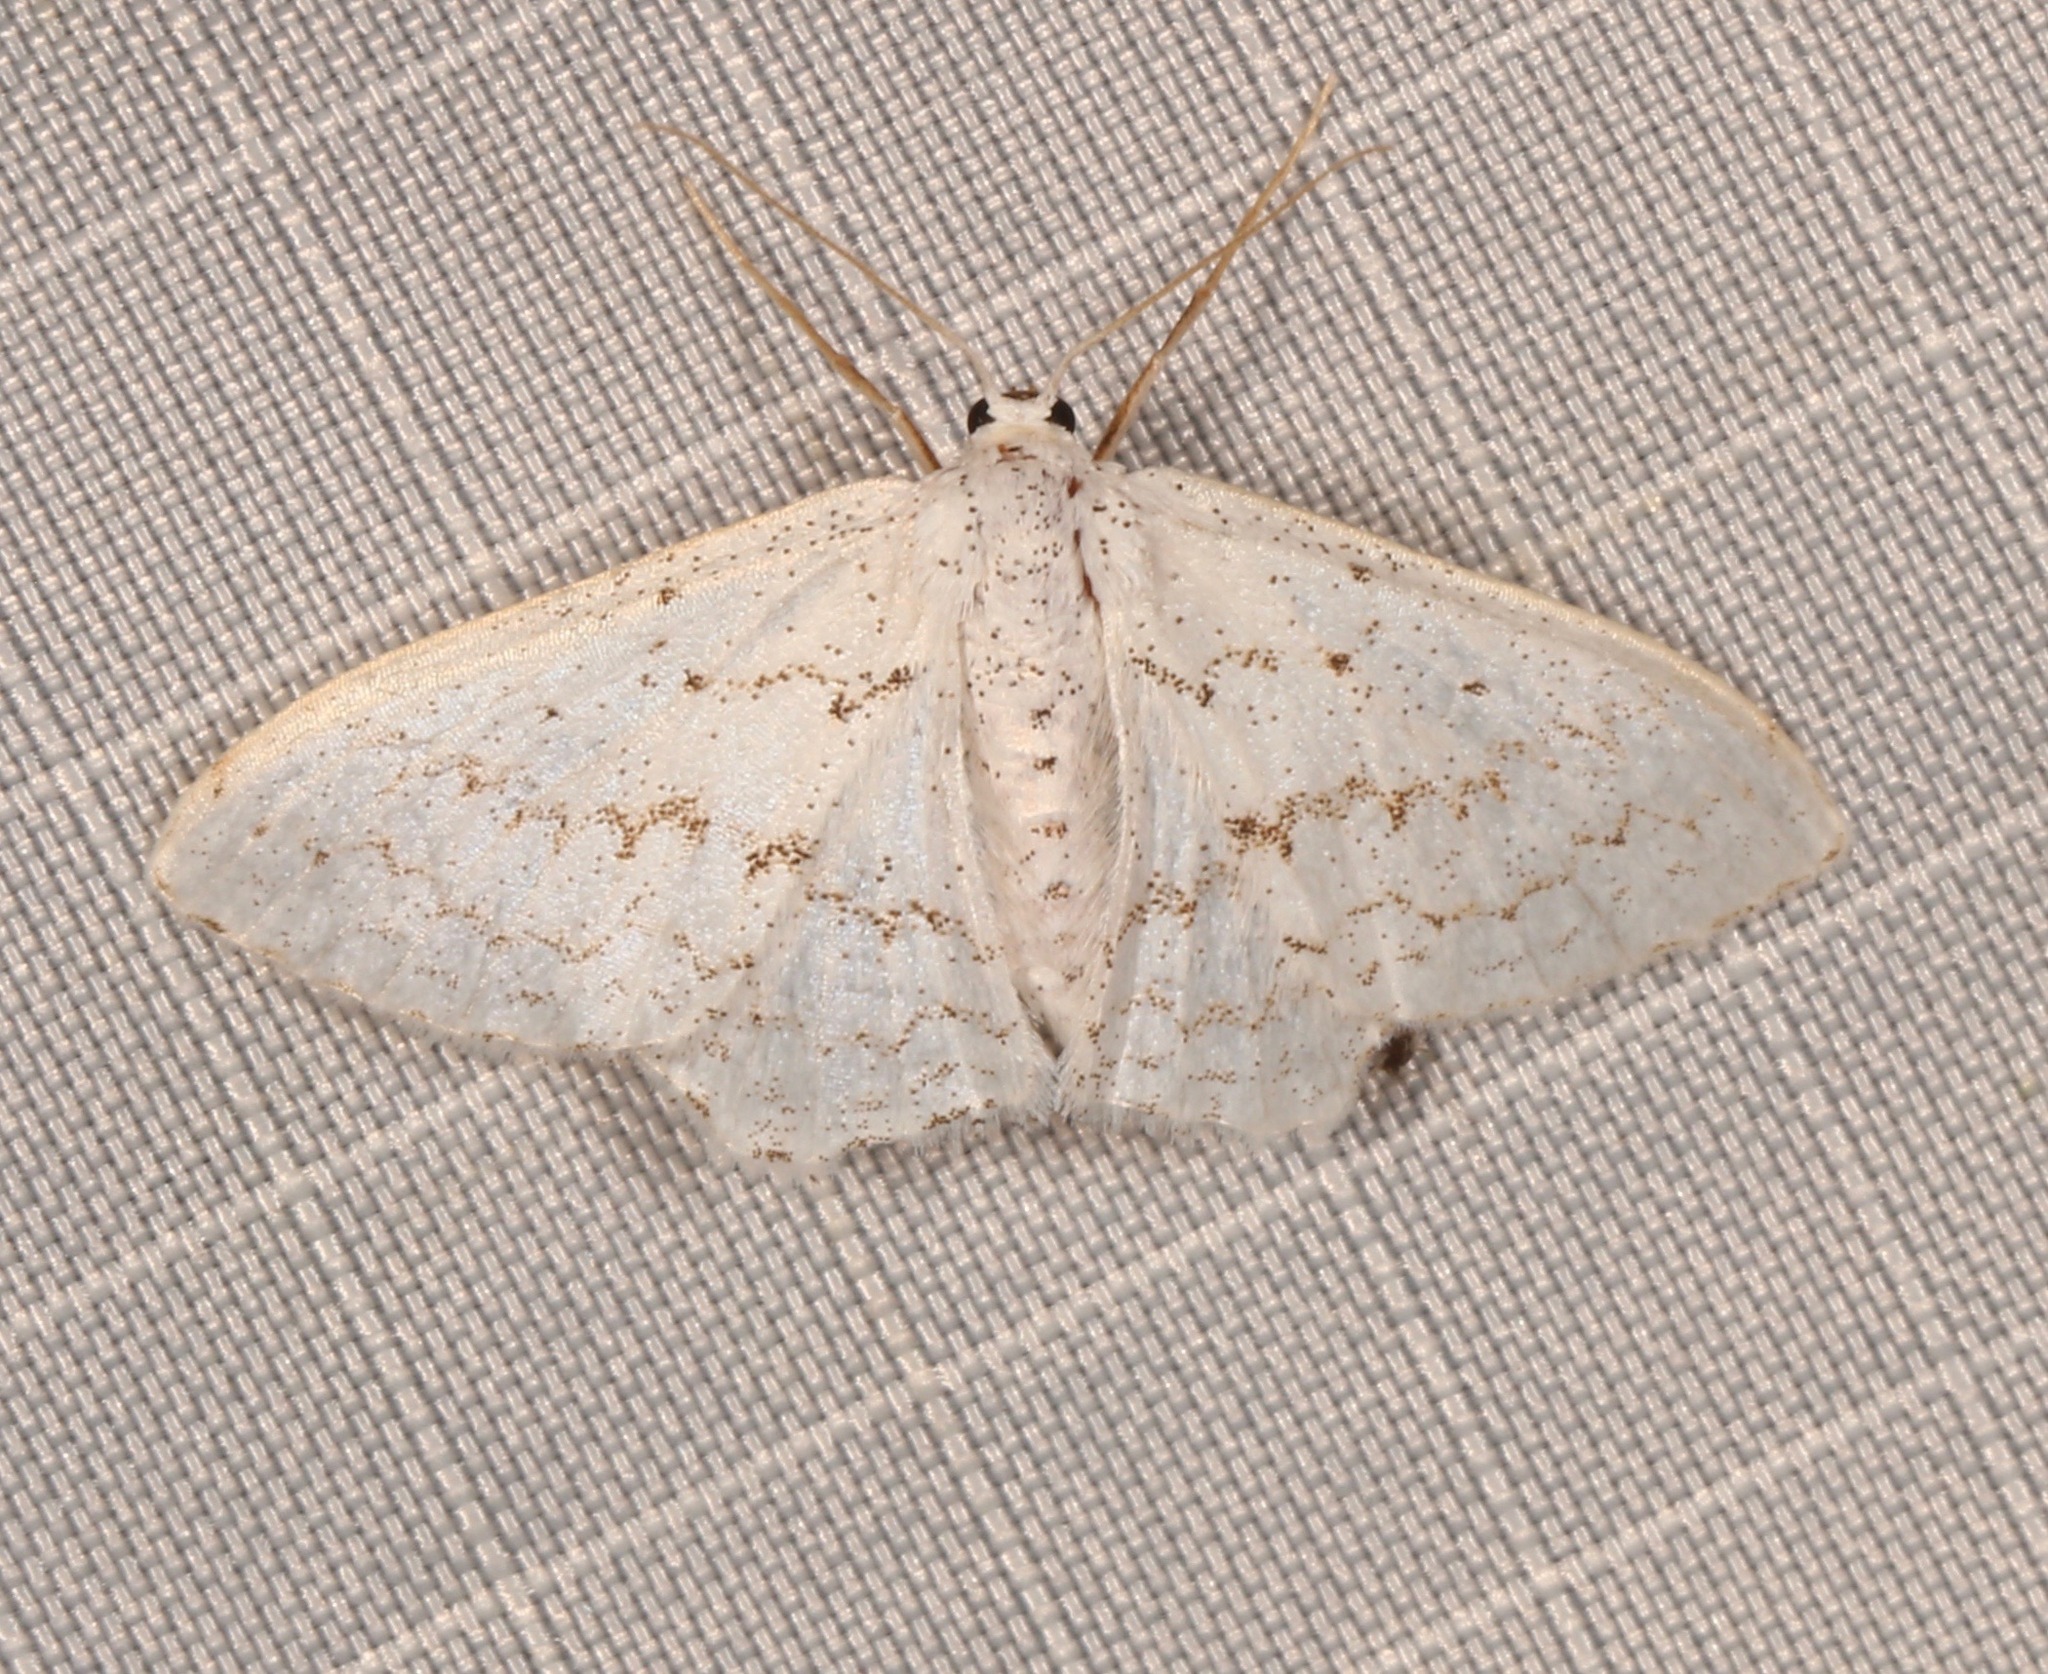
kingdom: Animalia
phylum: Arthropoda
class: Insecta
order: Lepidoptera
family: Geometridae
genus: Idaea
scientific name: Idaea tacturata
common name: Dot-lined wave
